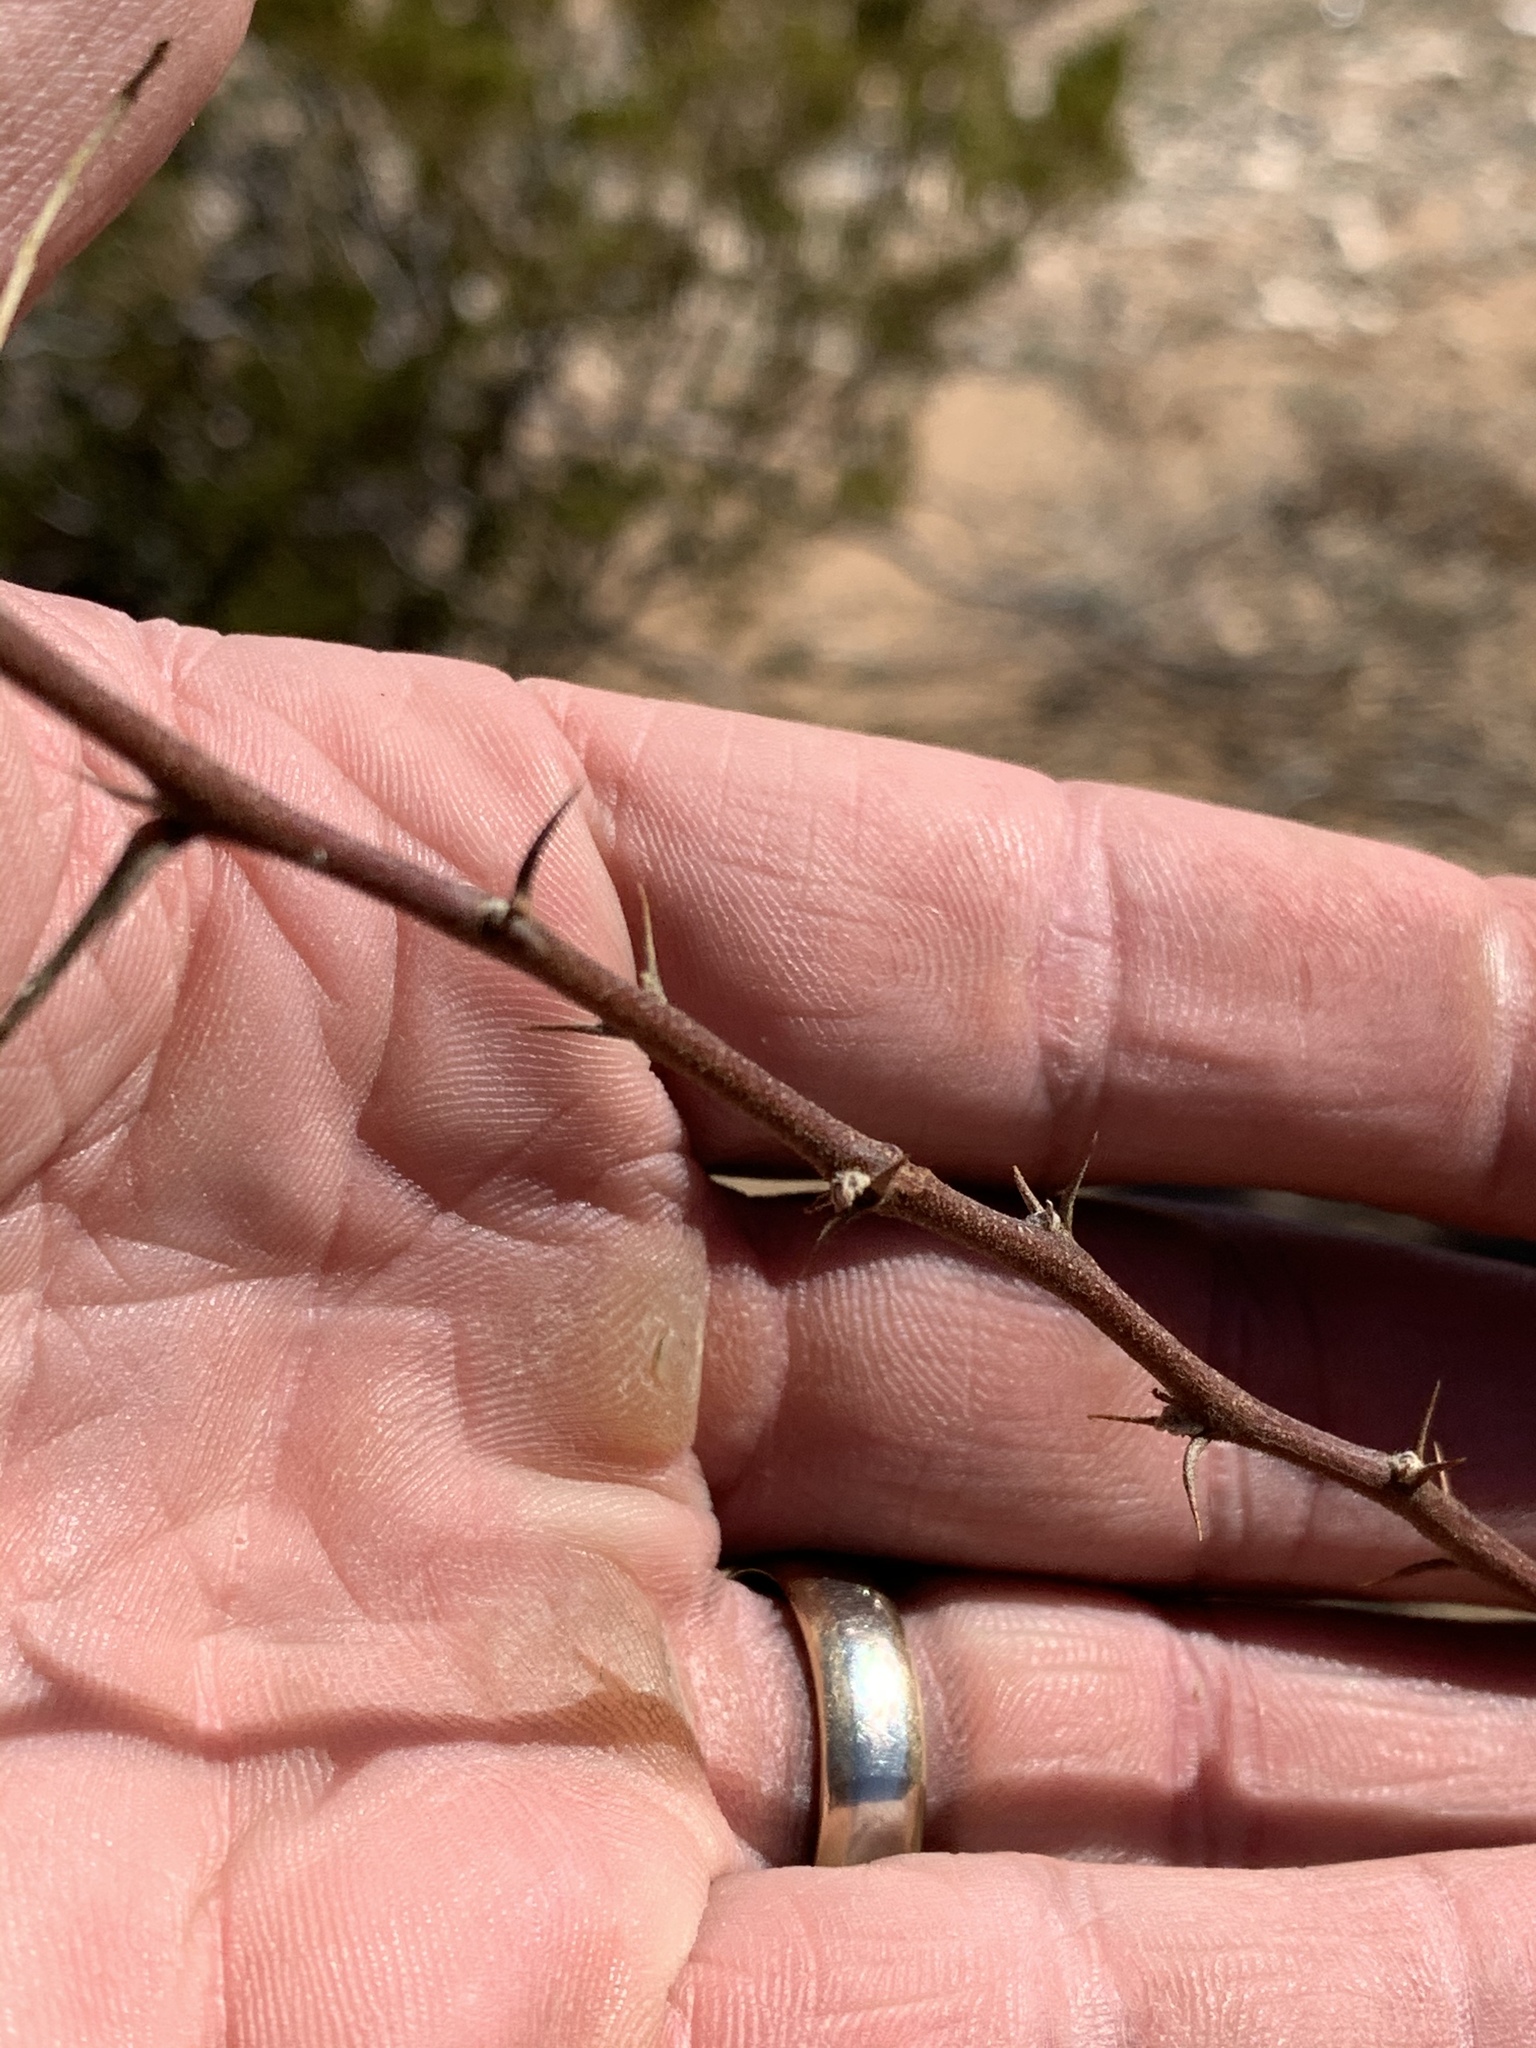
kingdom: Plantae
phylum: Tracheophyta
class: Magnoliopsida
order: Fabales
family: Fabaceae
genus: Vachellia
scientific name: Vachellia constricta
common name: Mescat acacia
